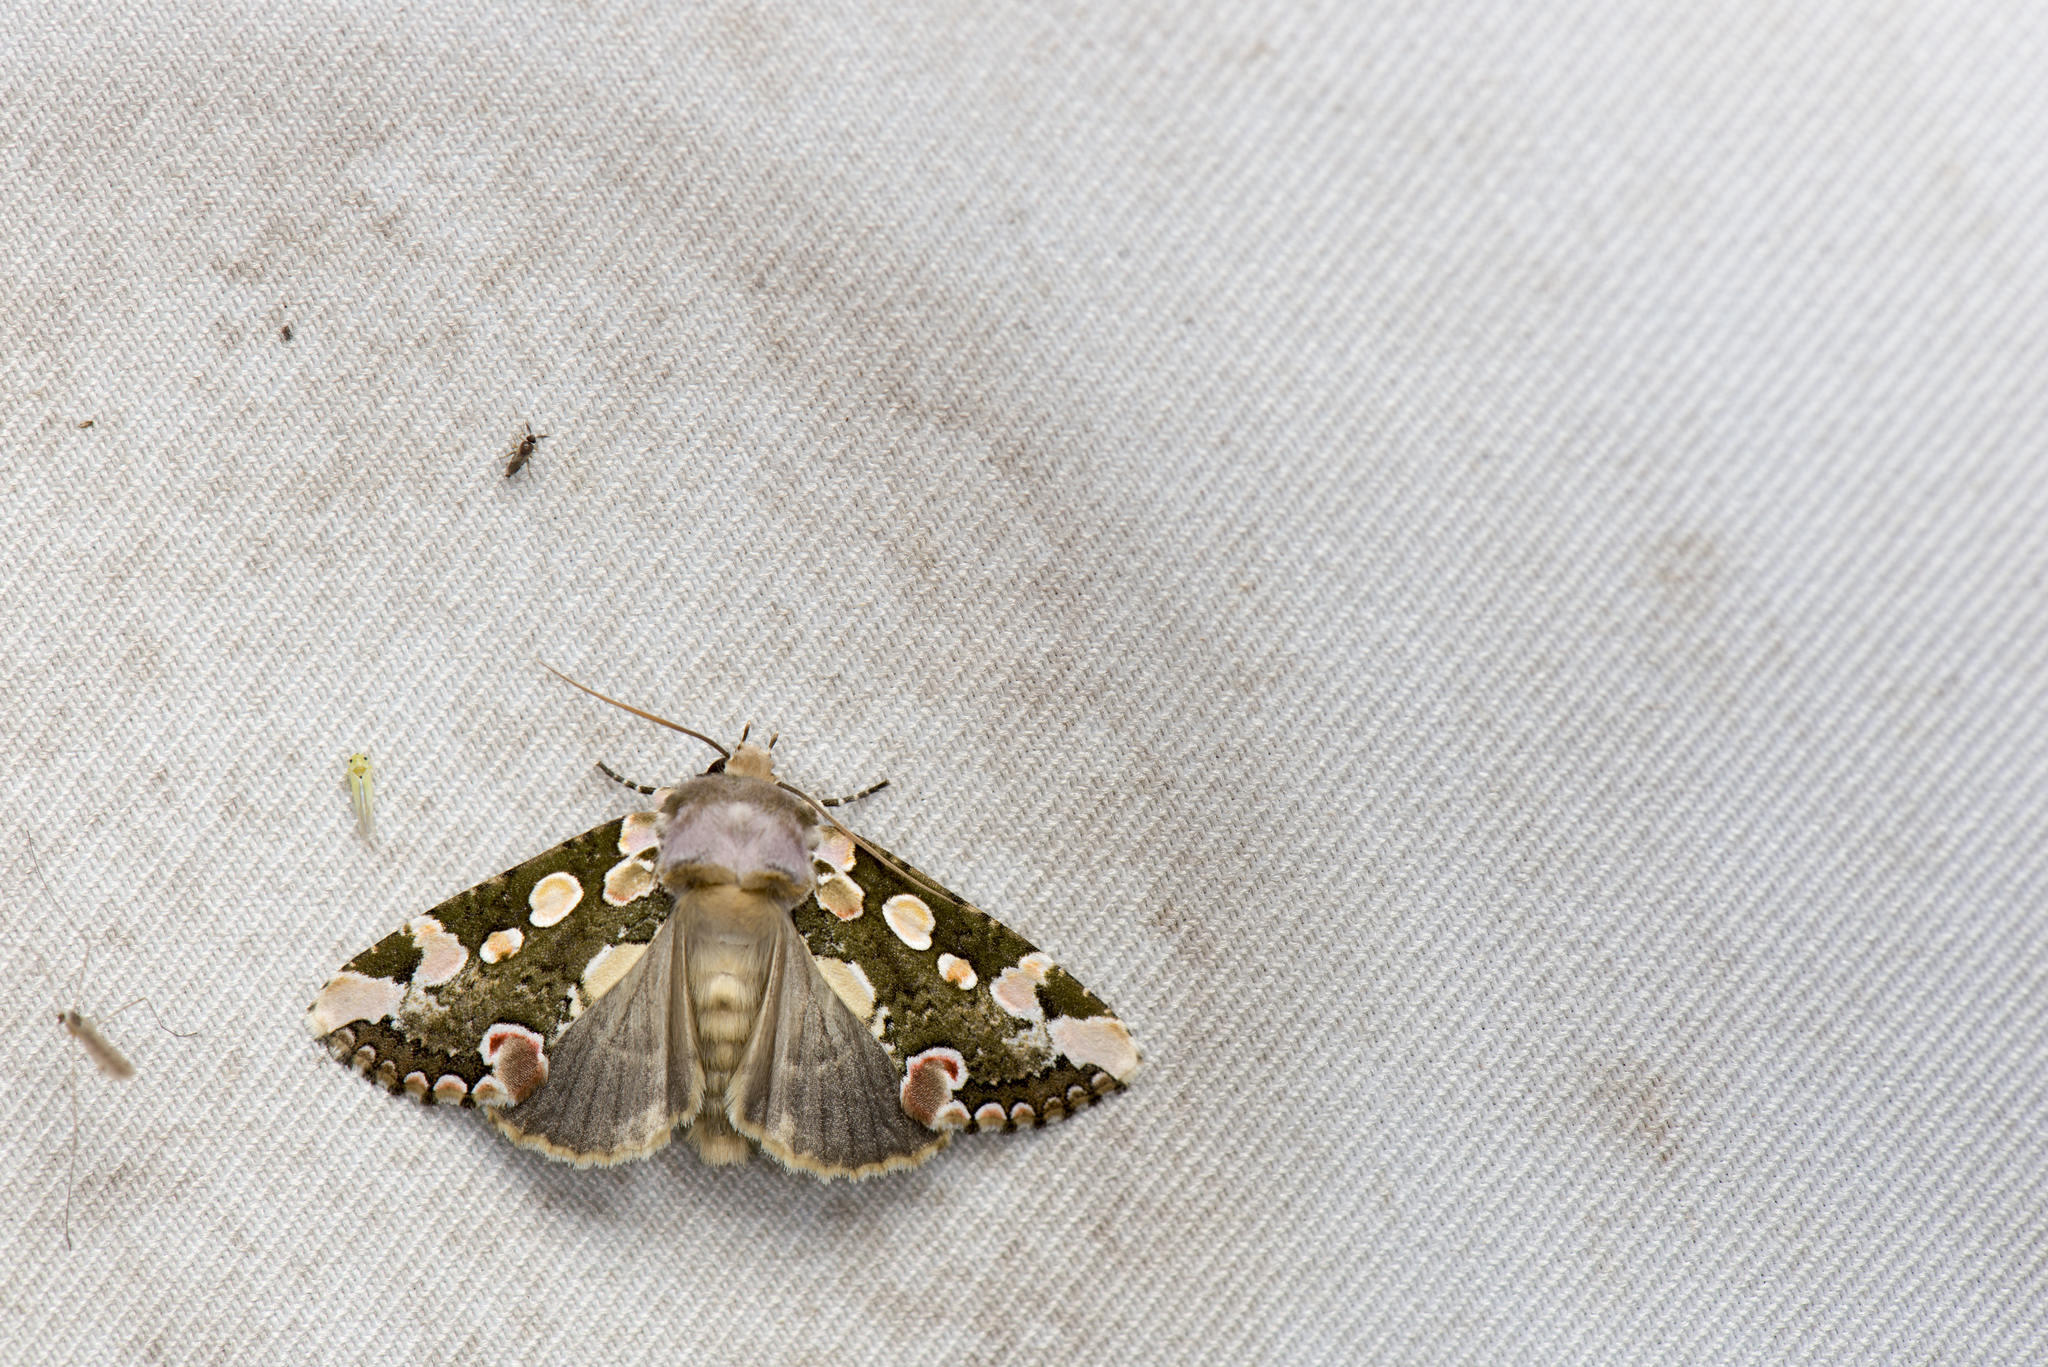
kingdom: Animalia
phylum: Arthropoda
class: Insecta
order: Lepidoptera
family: Drepanidae
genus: Horithyatira
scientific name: Horithyatira takamukui
